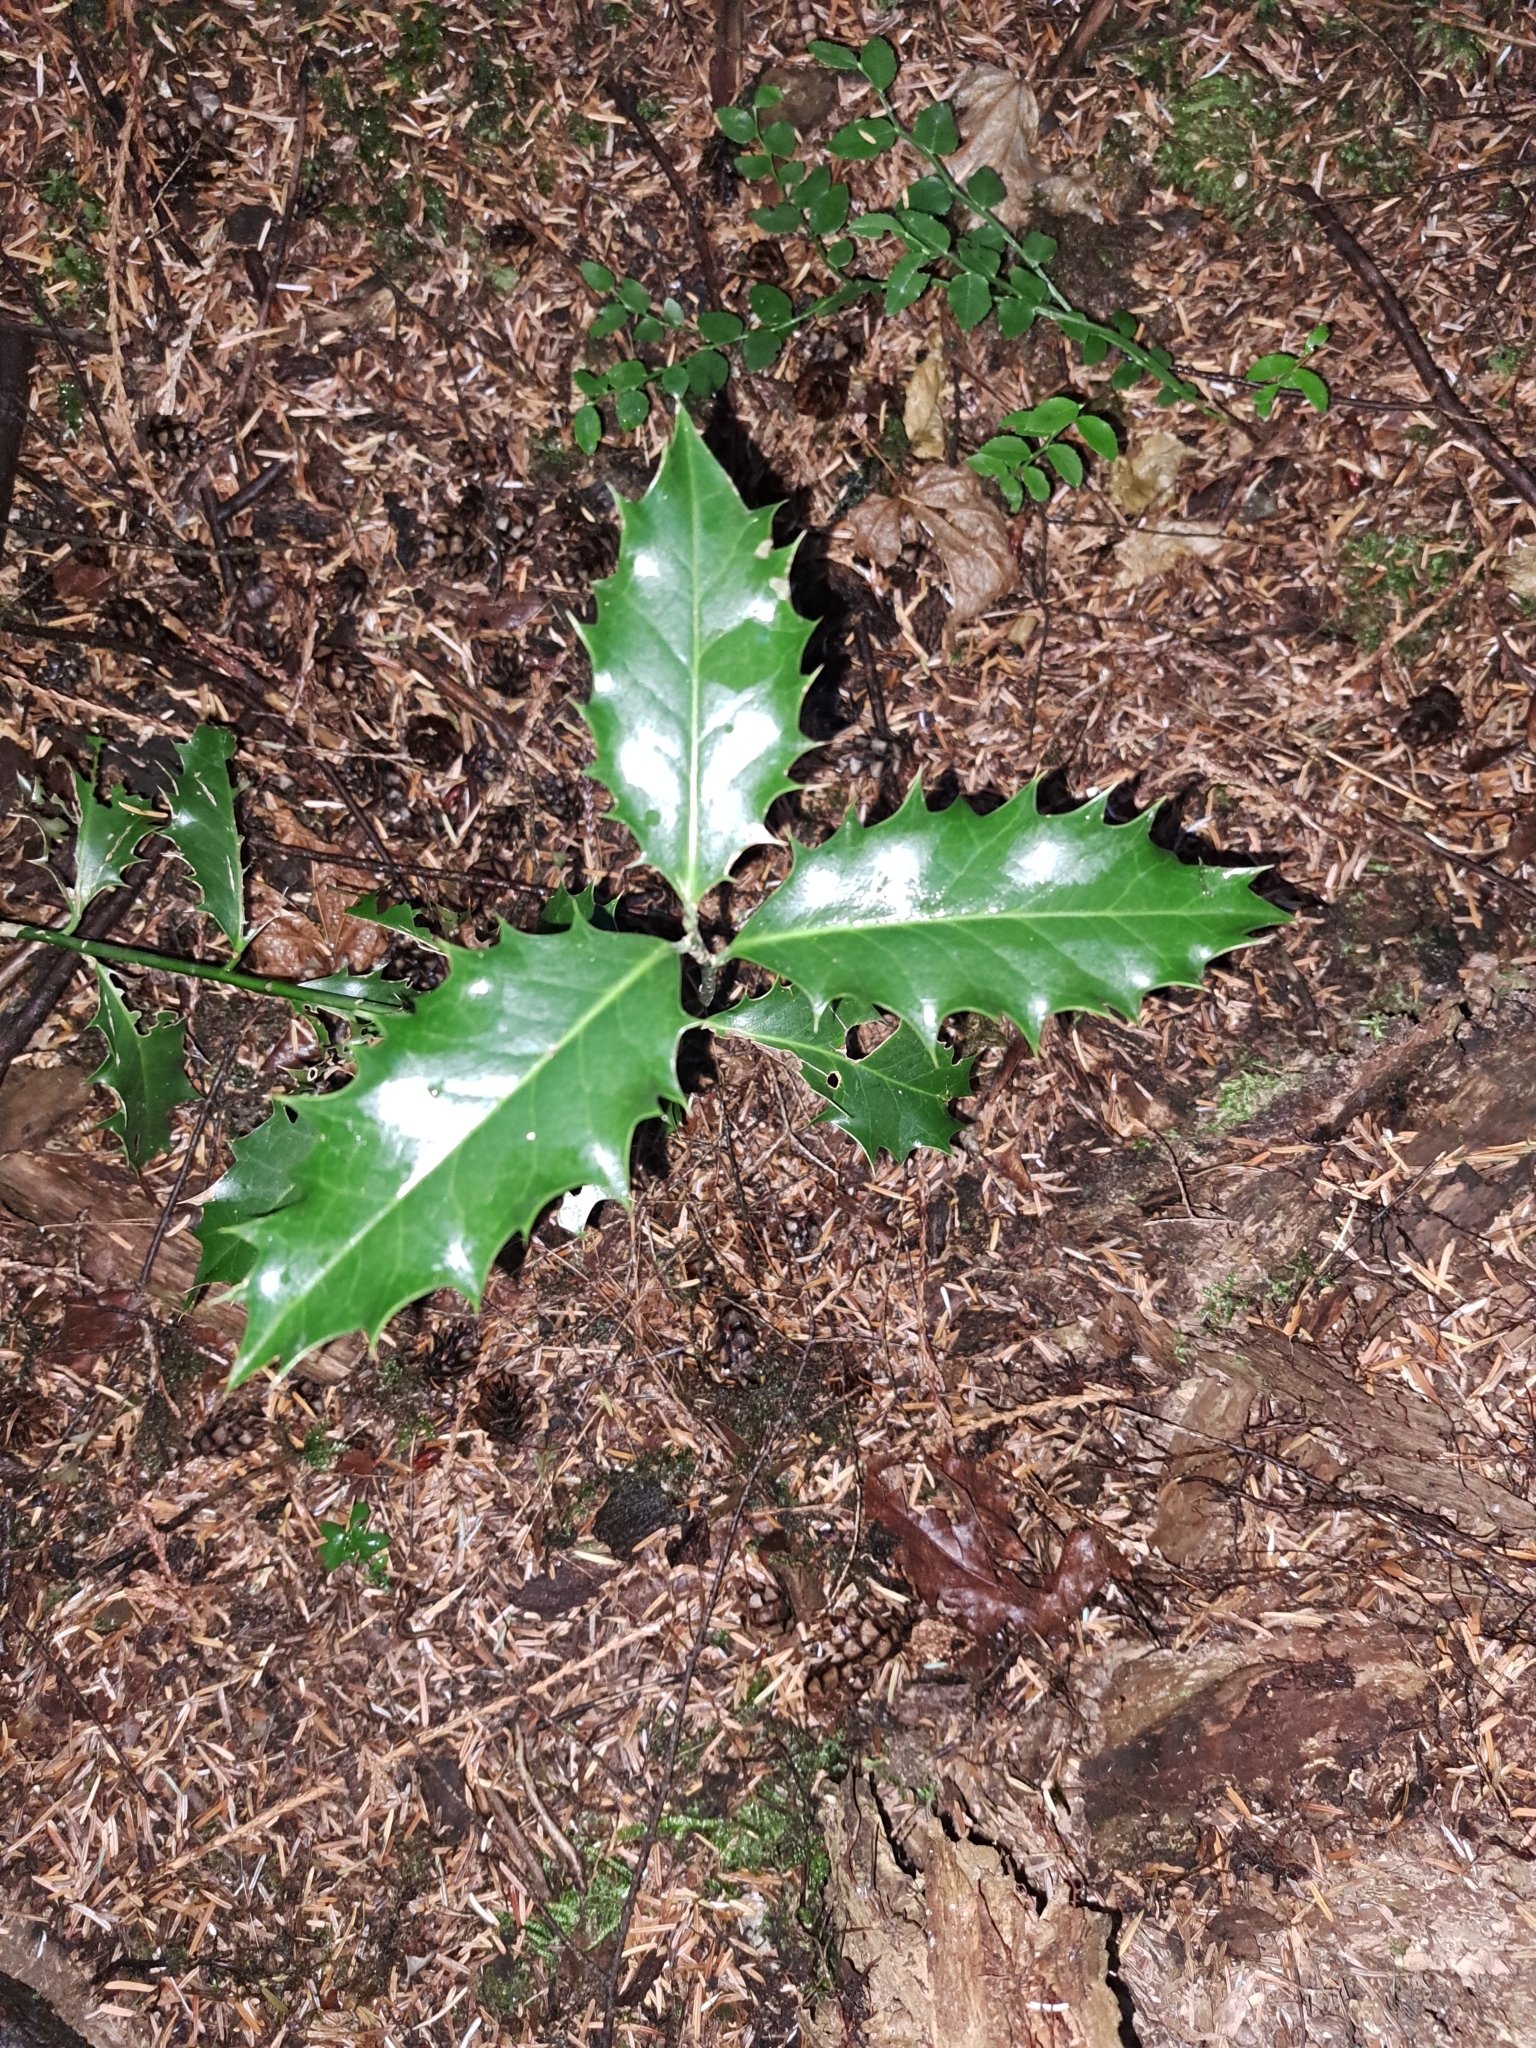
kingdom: Plantae
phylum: Tracheophyta
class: Magnoliopsida
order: Aquifoliales
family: Aquifoliaceae
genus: Ilex
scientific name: Ilex aquifolium
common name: English holly
